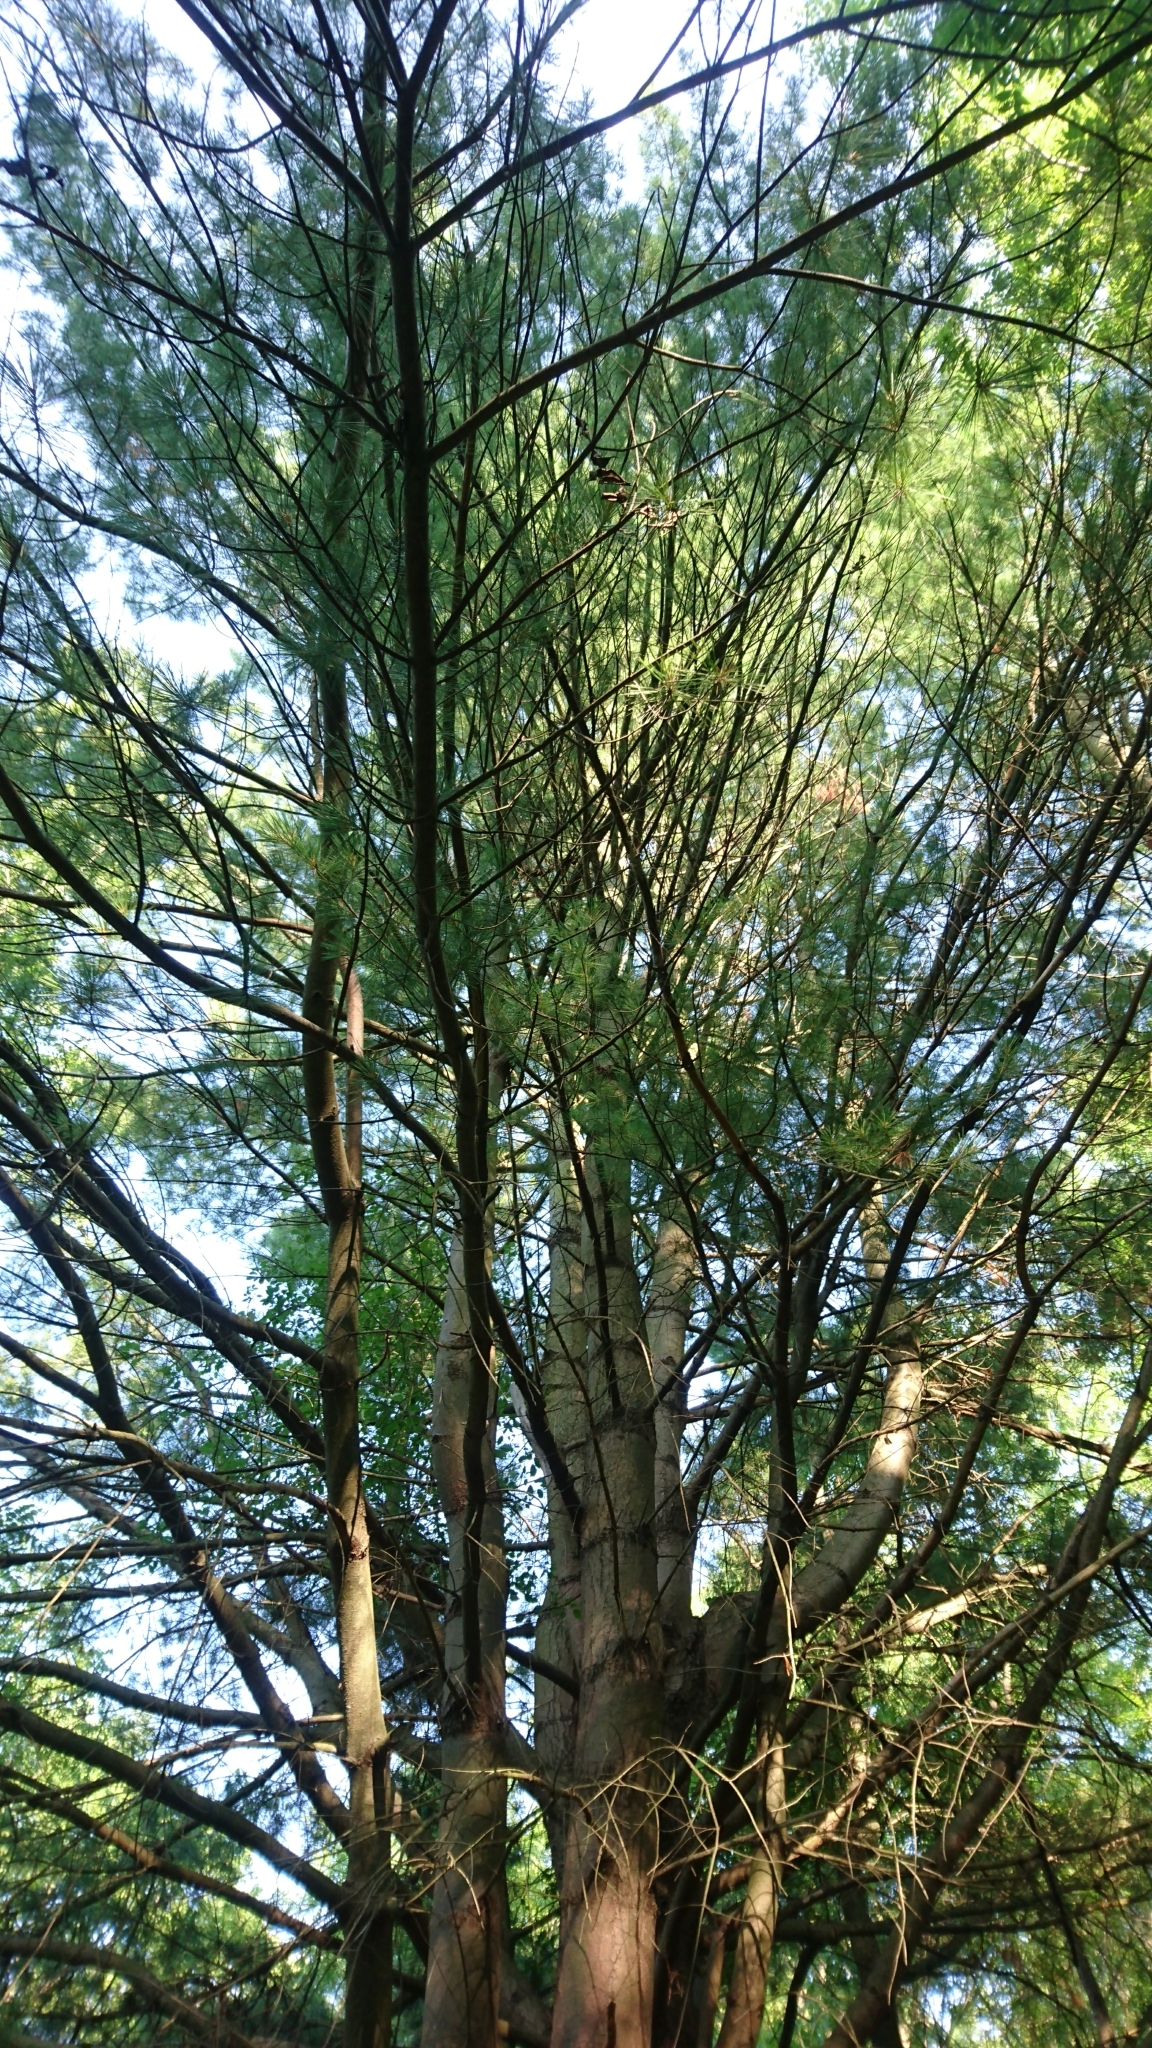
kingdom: Plantae
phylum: Tracheophyta
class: Pinopsida
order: Pinales
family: Pinaceae
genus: Pinus
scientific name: Pinus strobus
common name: Weymouth pine
